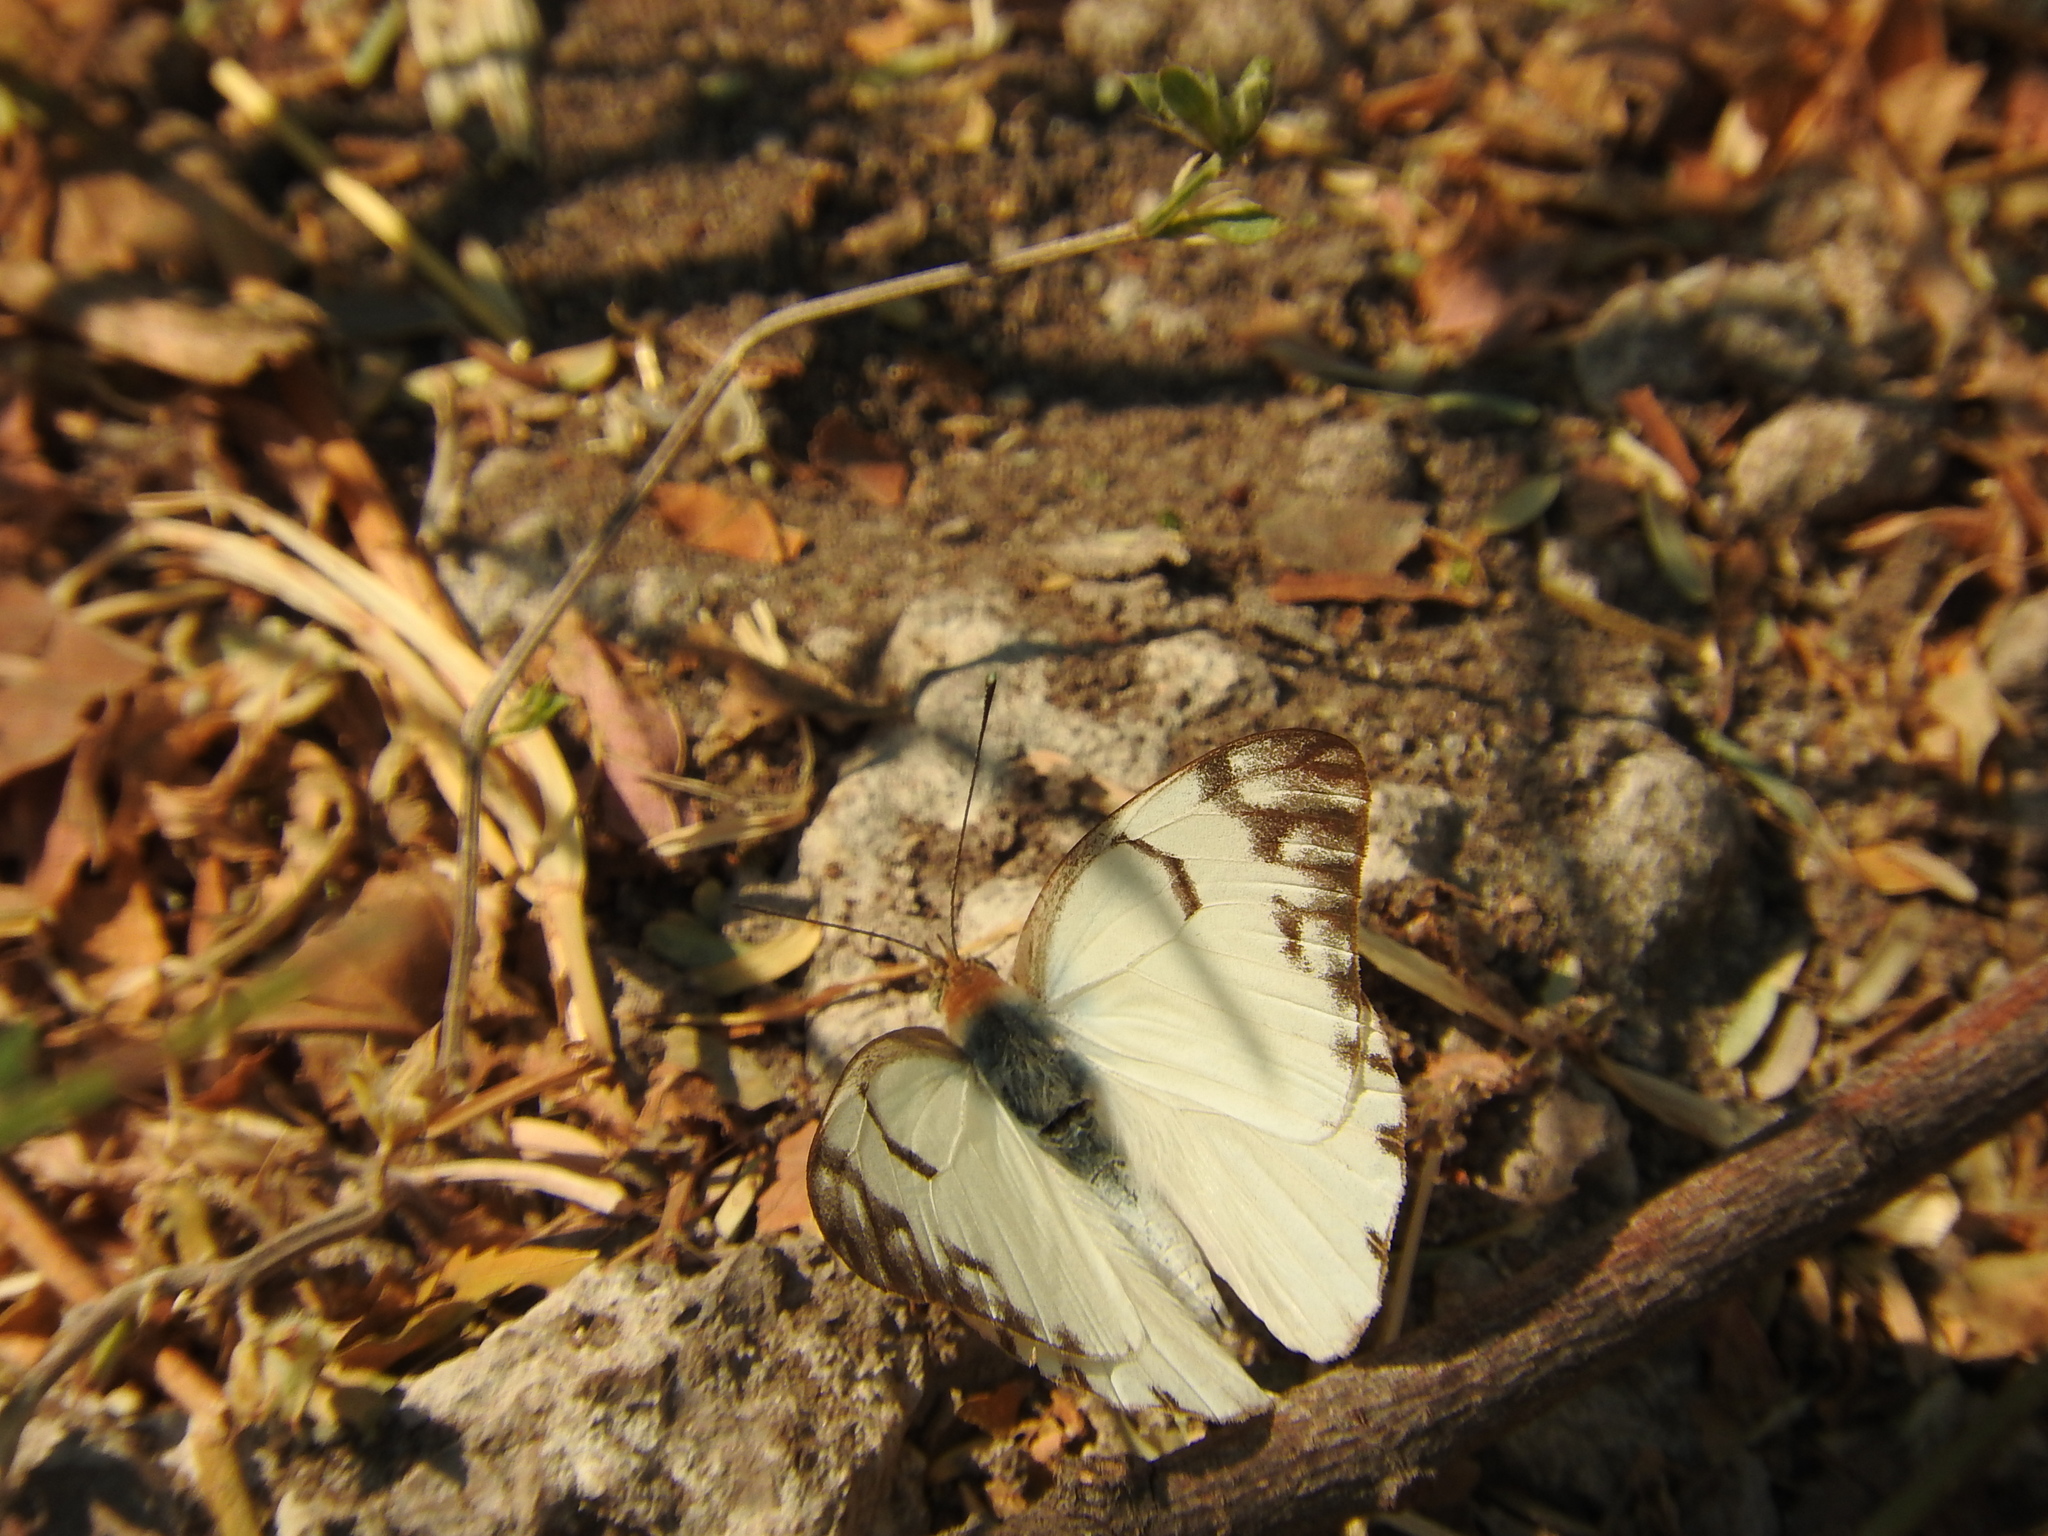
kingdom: Animalia
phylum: Arthropoda
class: Insecta
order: Lepidoptera
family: Pieridae
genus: Belenois
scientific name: Belenois gidica
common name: Pointed caper white
